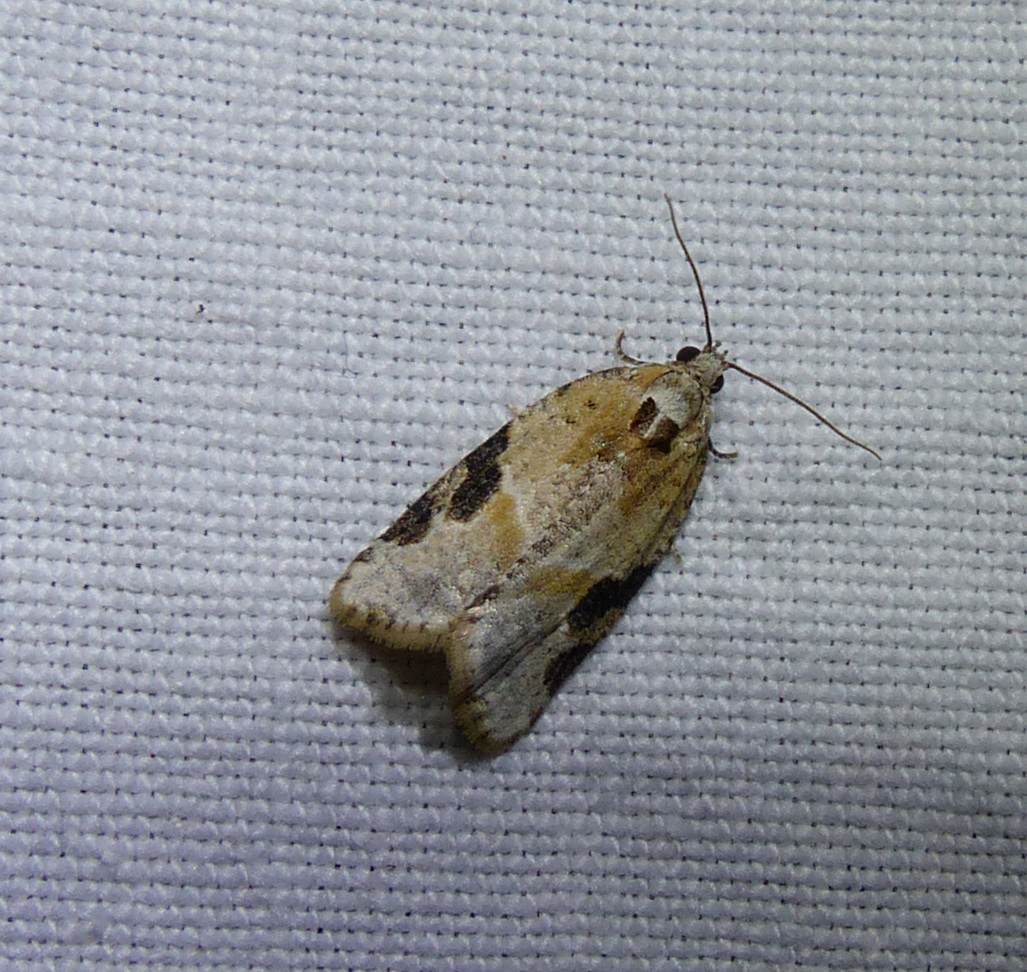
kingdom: Animalia
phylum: Arthropoda
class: Insecta
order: Lepidoptera
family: Tortricidae
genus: Argyrotaenia
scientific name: Argyrotaenia mariana
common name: Gray-banded leafroller moth
